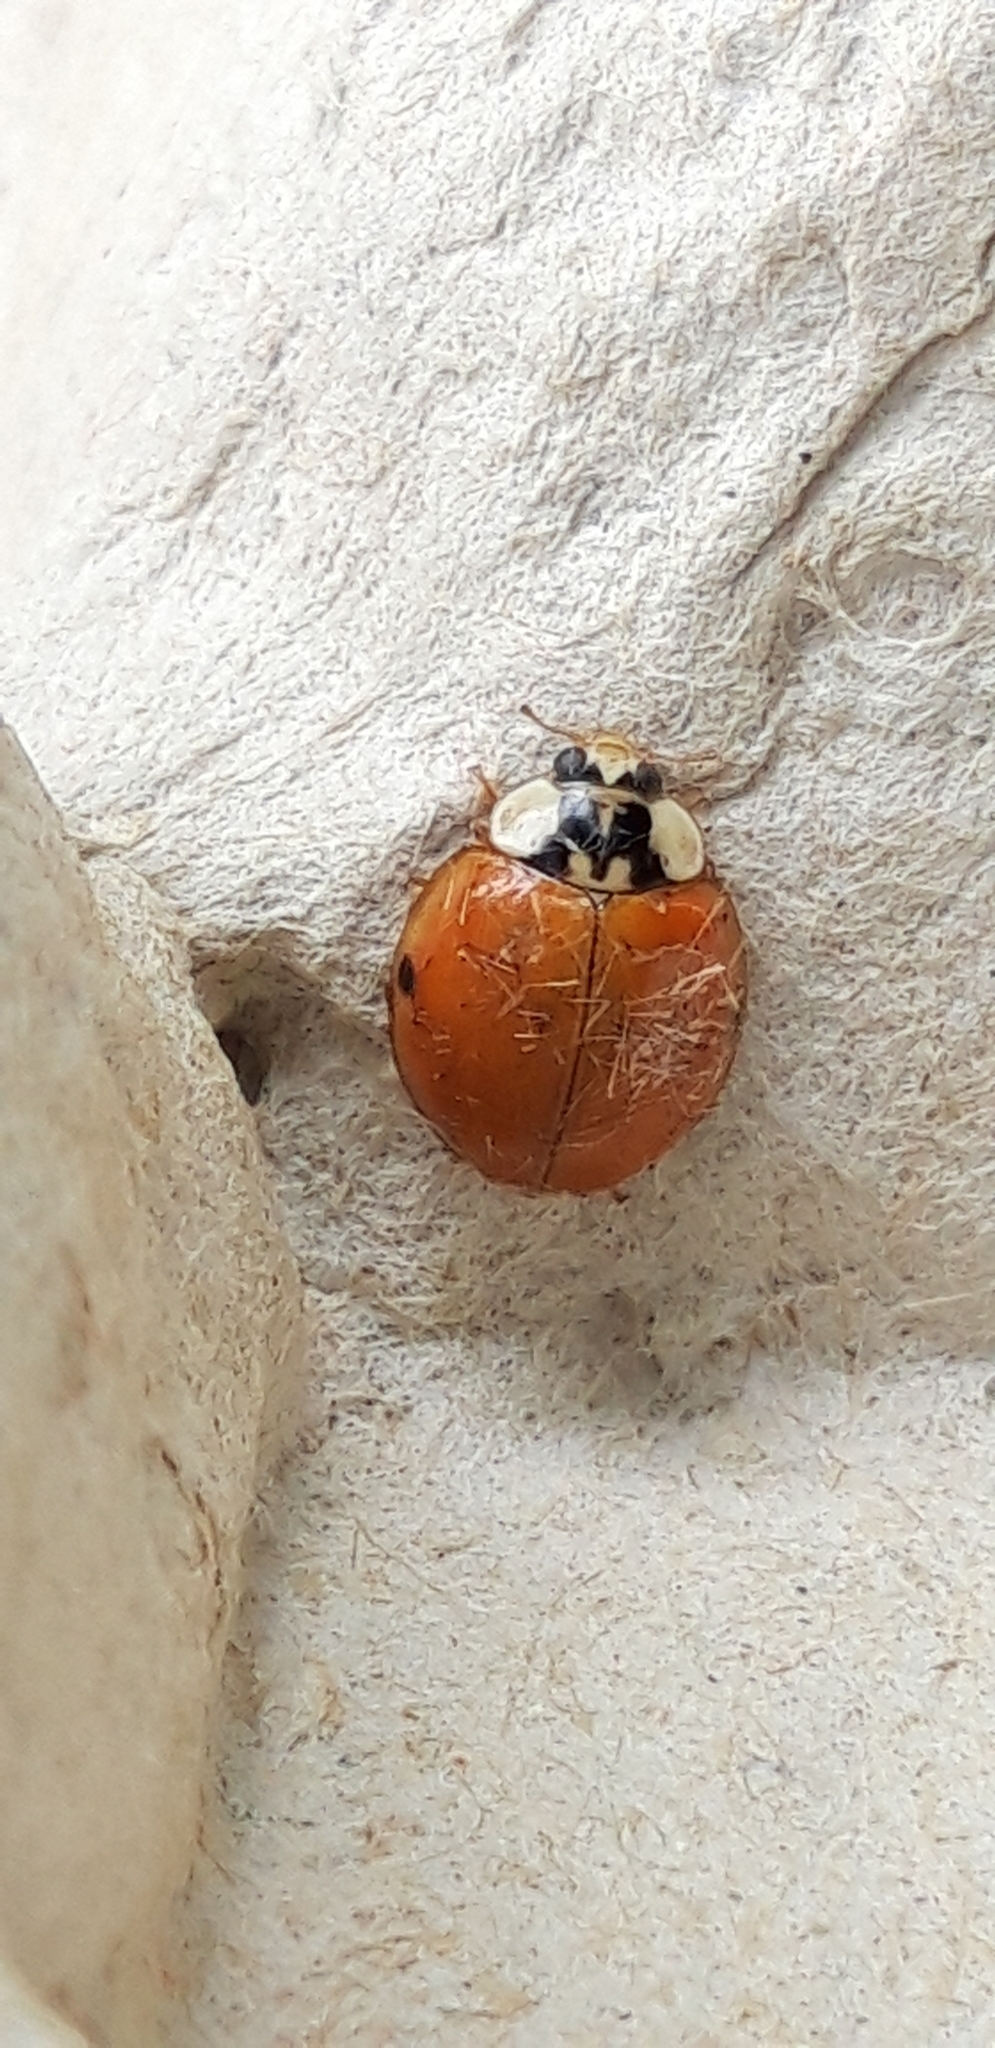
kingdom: Animalia
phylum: Arthropoda
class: Insecta
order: Coleoptera
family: Coccinellidae
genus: Harmonia
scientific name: Harmonia axyridis
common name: Harlequin ladybird
